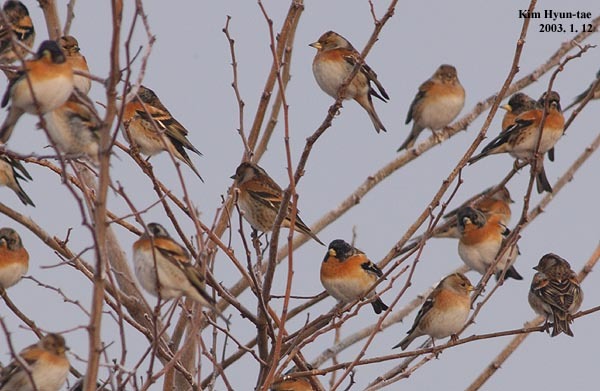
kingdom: Animalia
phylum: Chordata
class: Aves
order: Passeriformes
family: Fringillidae
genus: Fringilla
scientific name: Fringilla montifringilla
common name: Brambling
